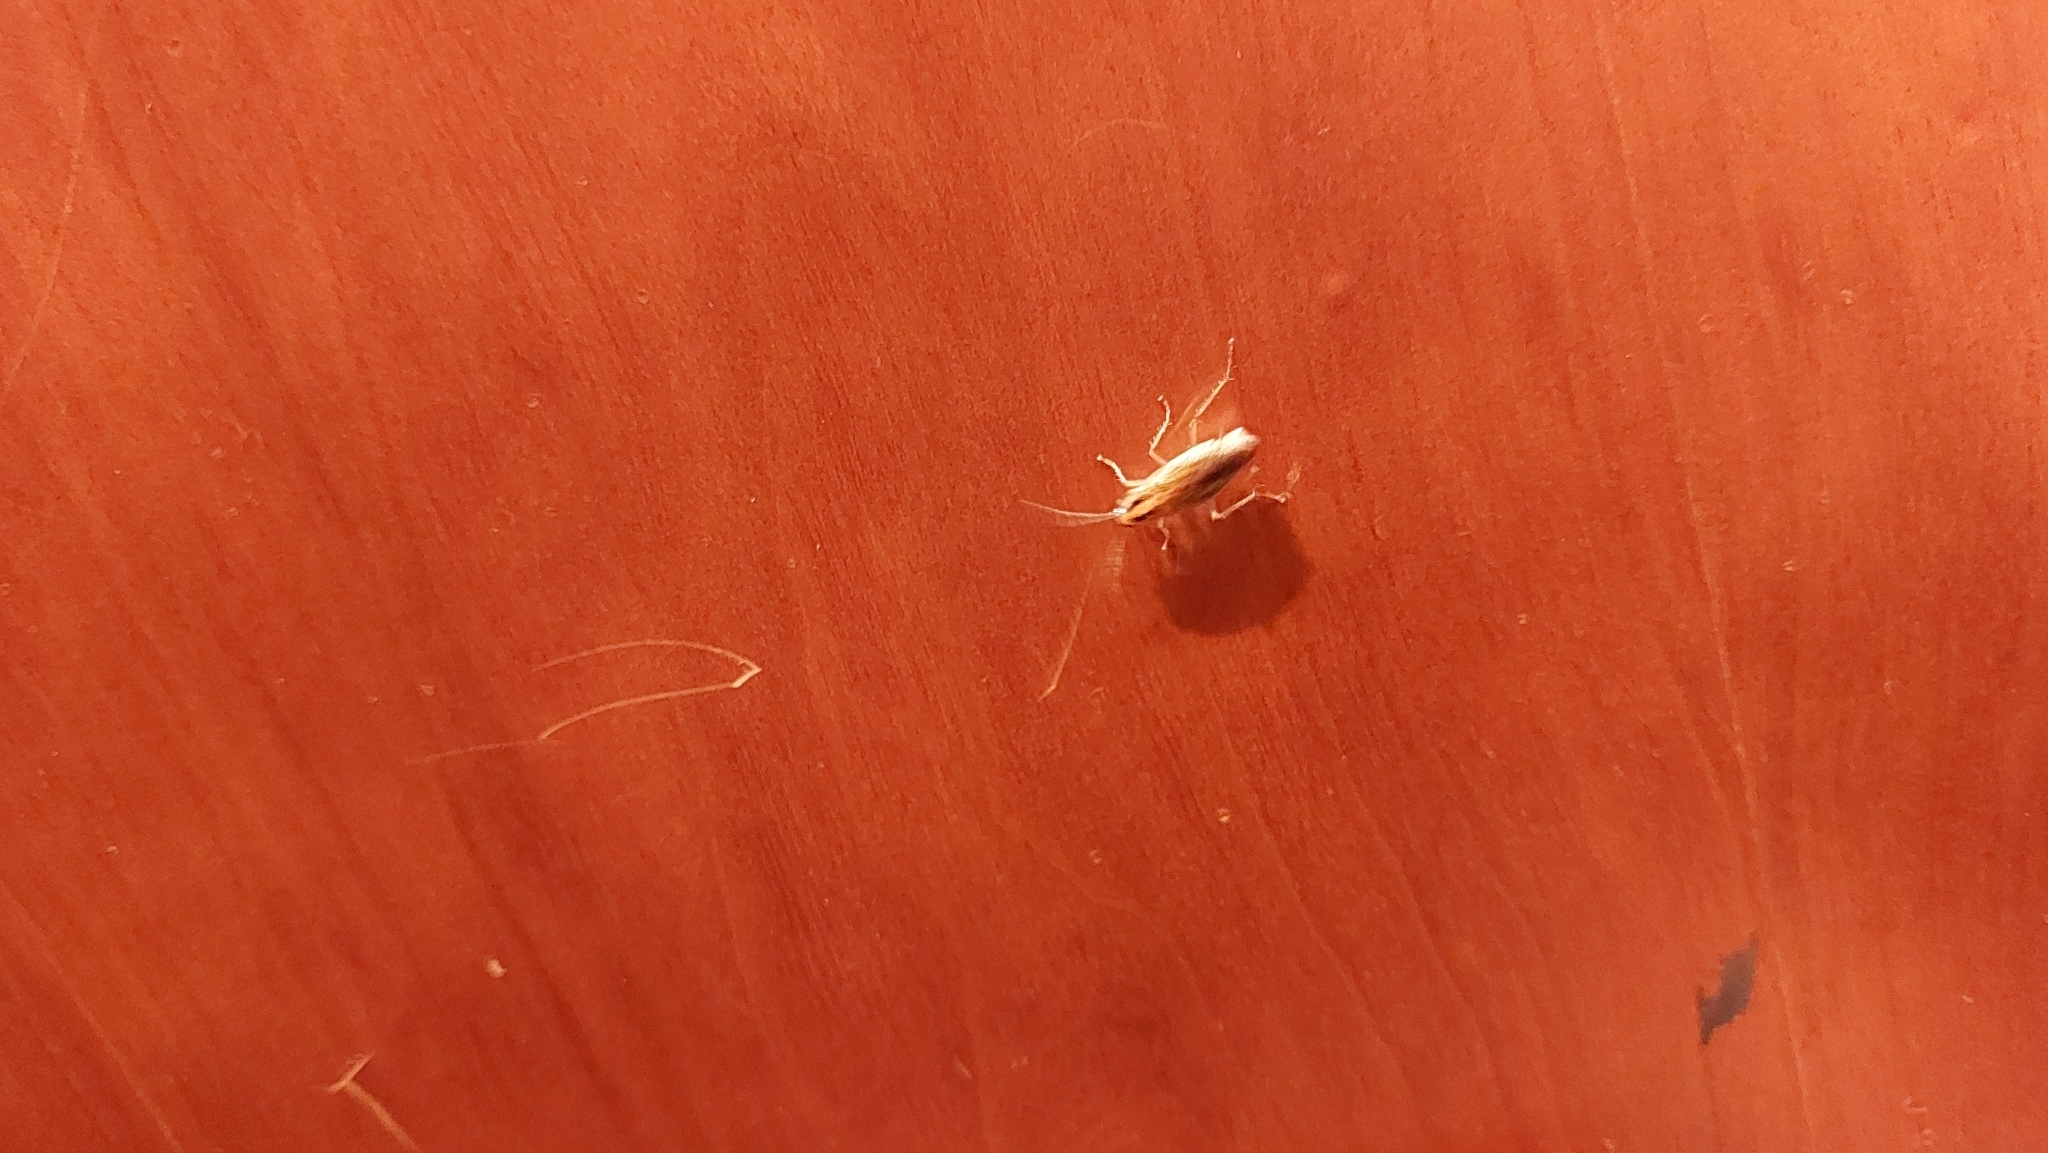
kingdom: Animalia
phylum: Arthropoda
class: Insecta
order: Blattodea
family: Ectobiidae
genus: Blattella
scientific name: Blattella germanica
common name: German cockroach
